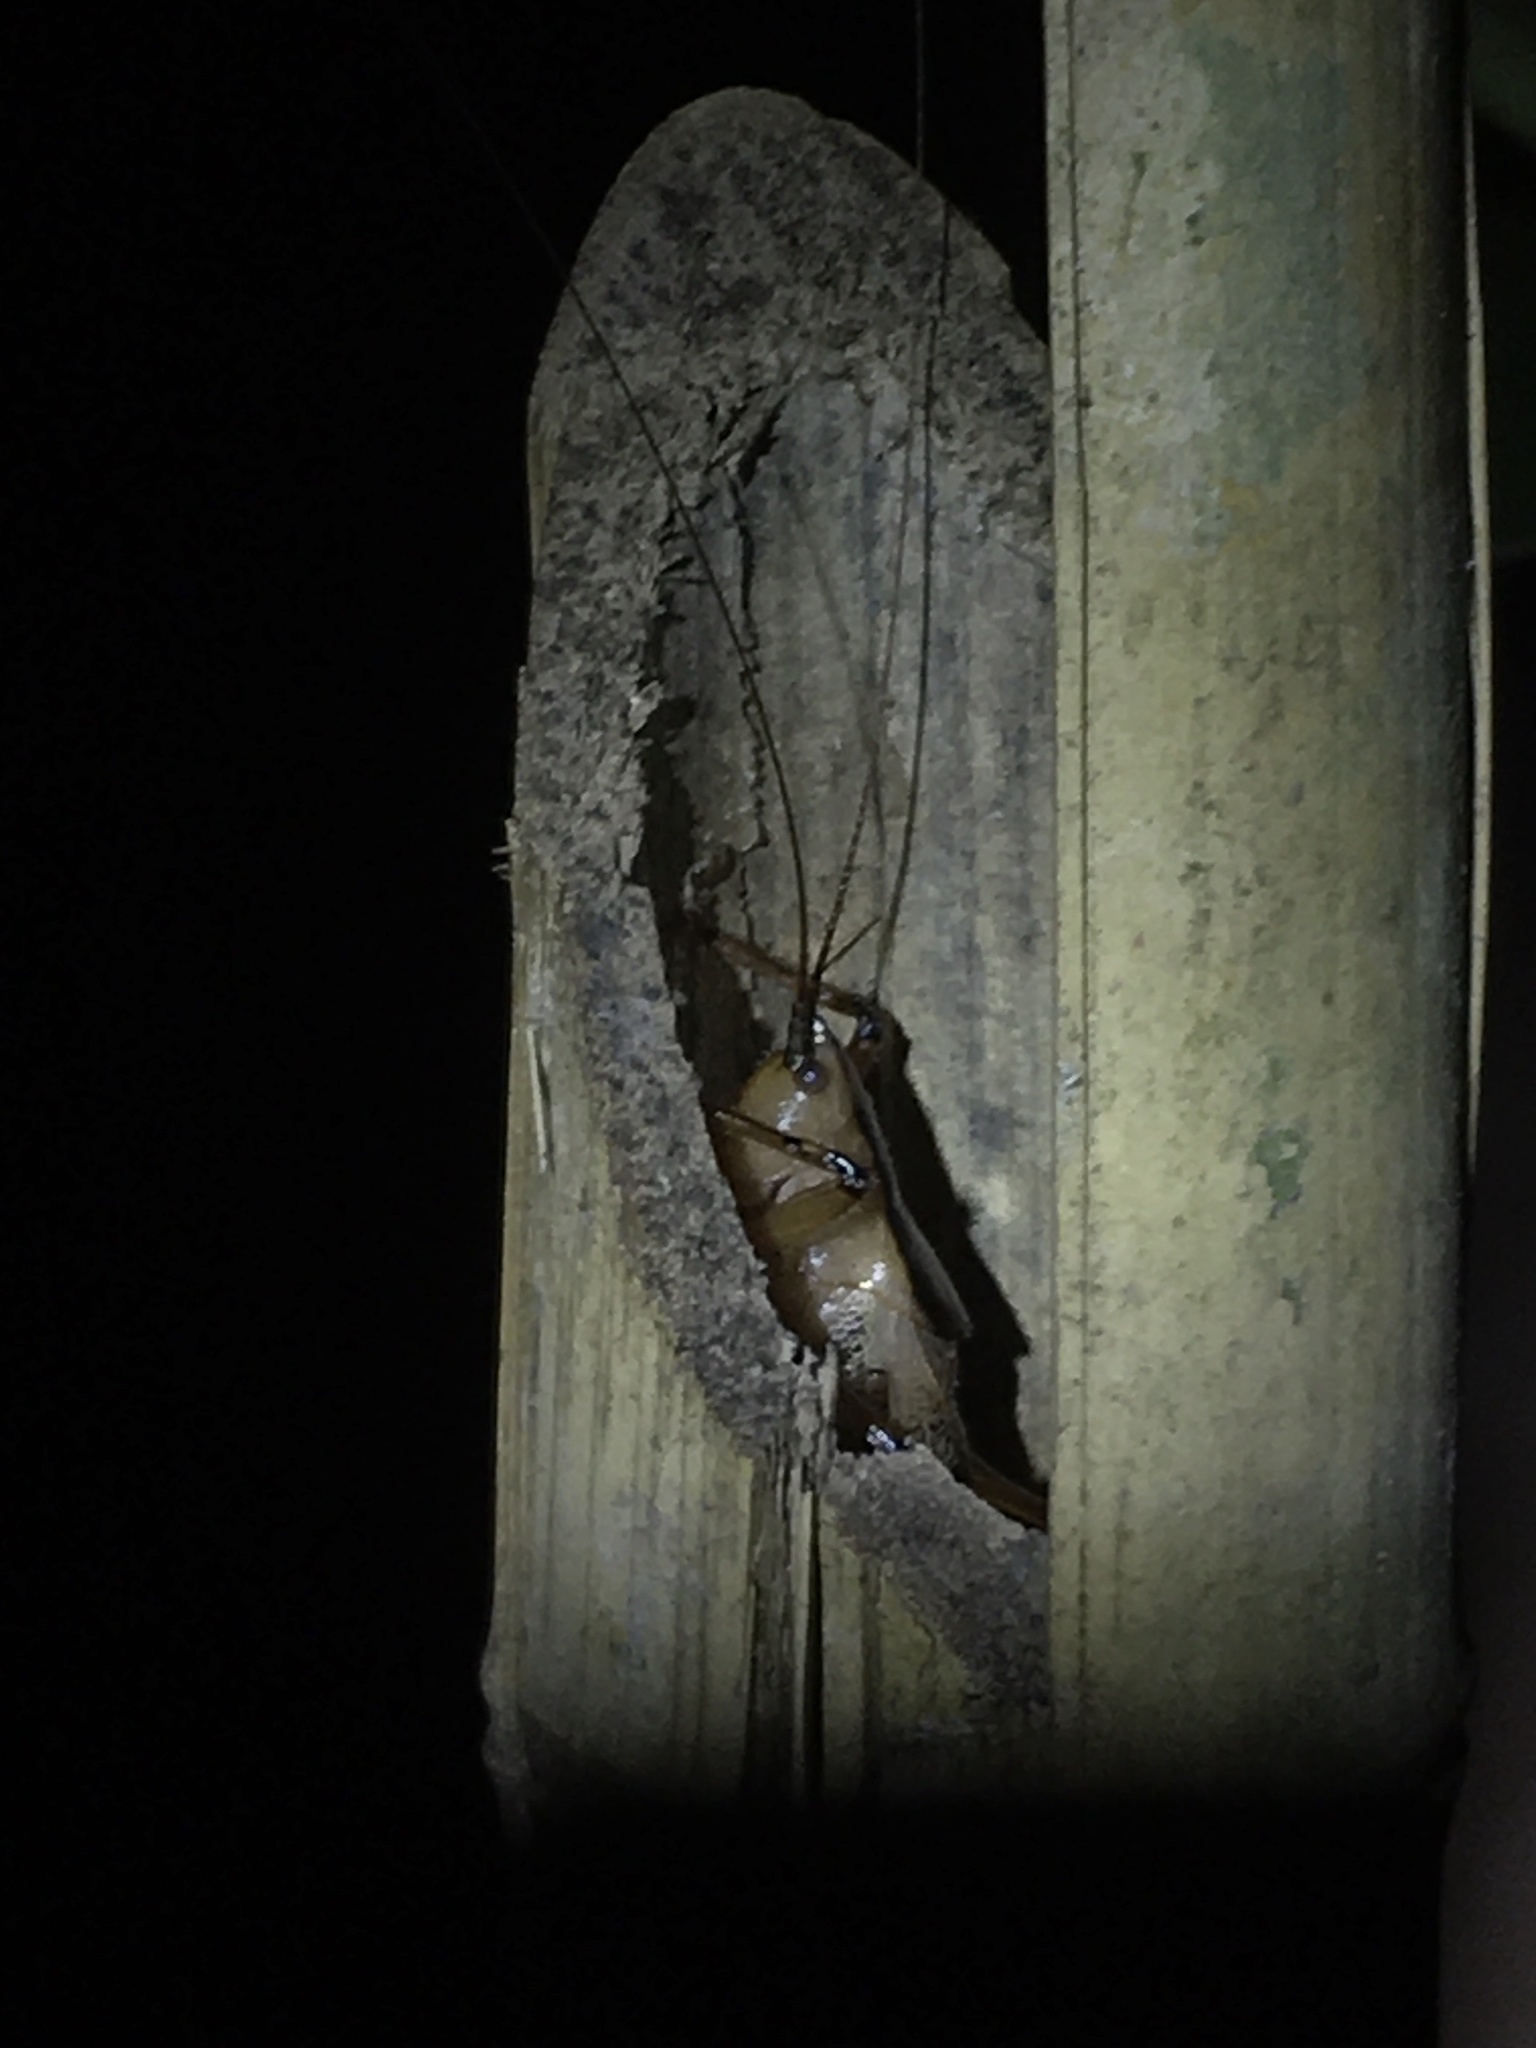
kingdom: Animalia
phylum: Arthropoda
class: Insecta
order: Orthoptera
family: Tettigoniidae
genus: Agraecia
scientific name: Agraecia agraecioides
